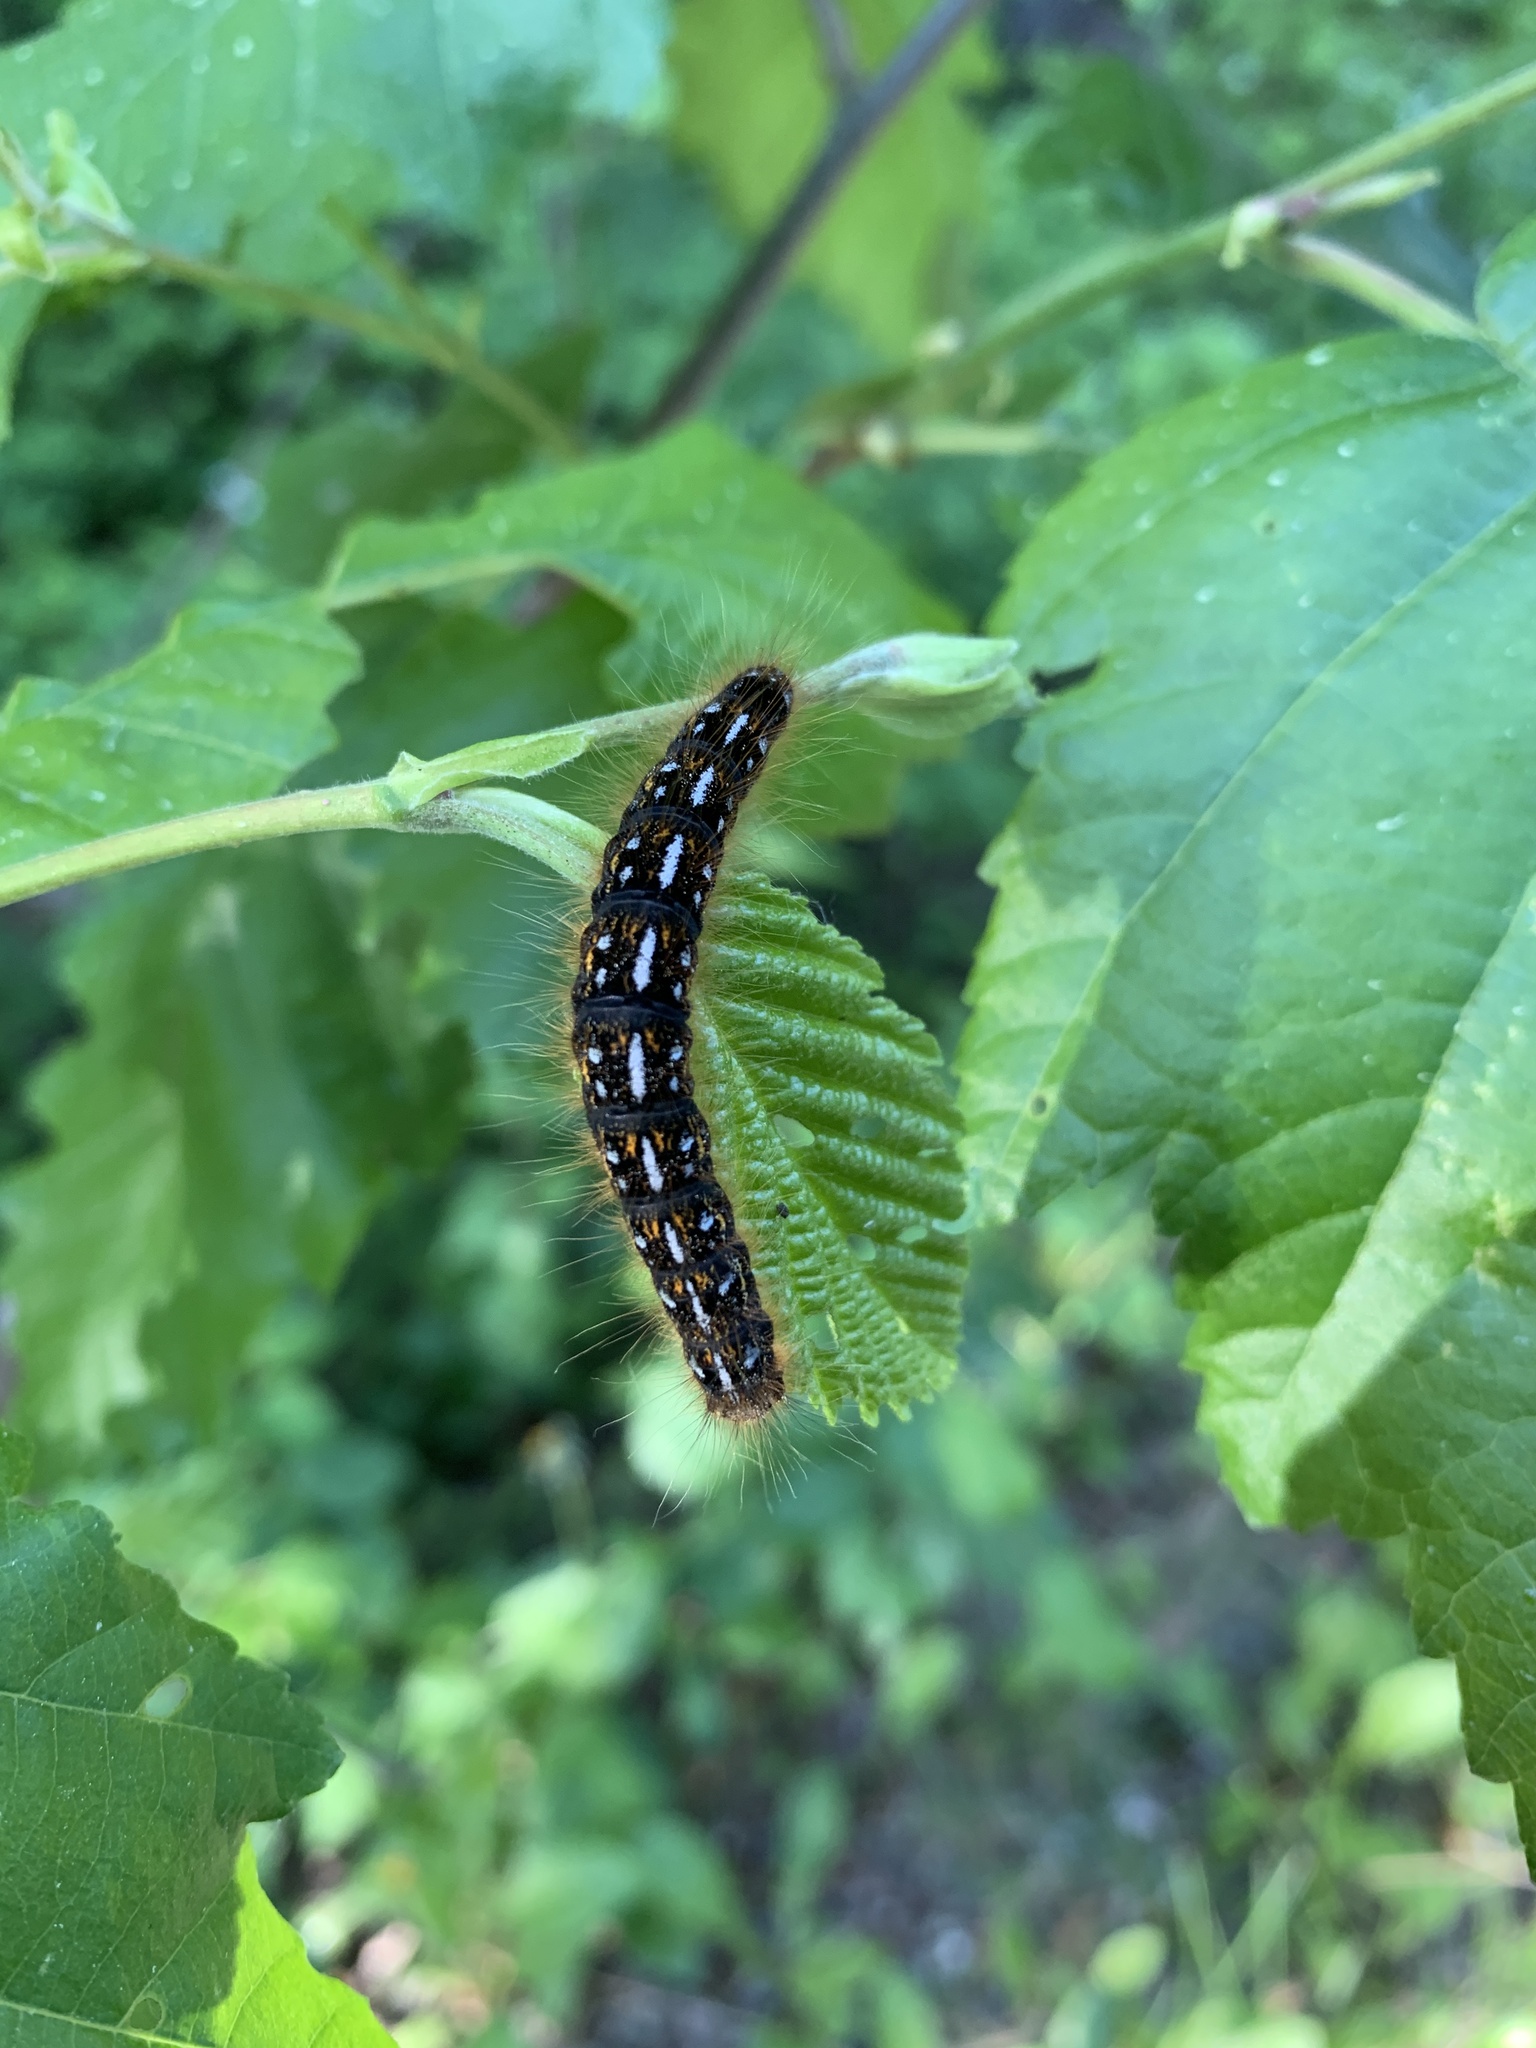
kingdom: Animalia
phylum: Arthropoda
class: Insecta
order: Lepidoptera
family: Lasiocampidae
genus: Malacosoma
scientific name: Malacosoma californica
